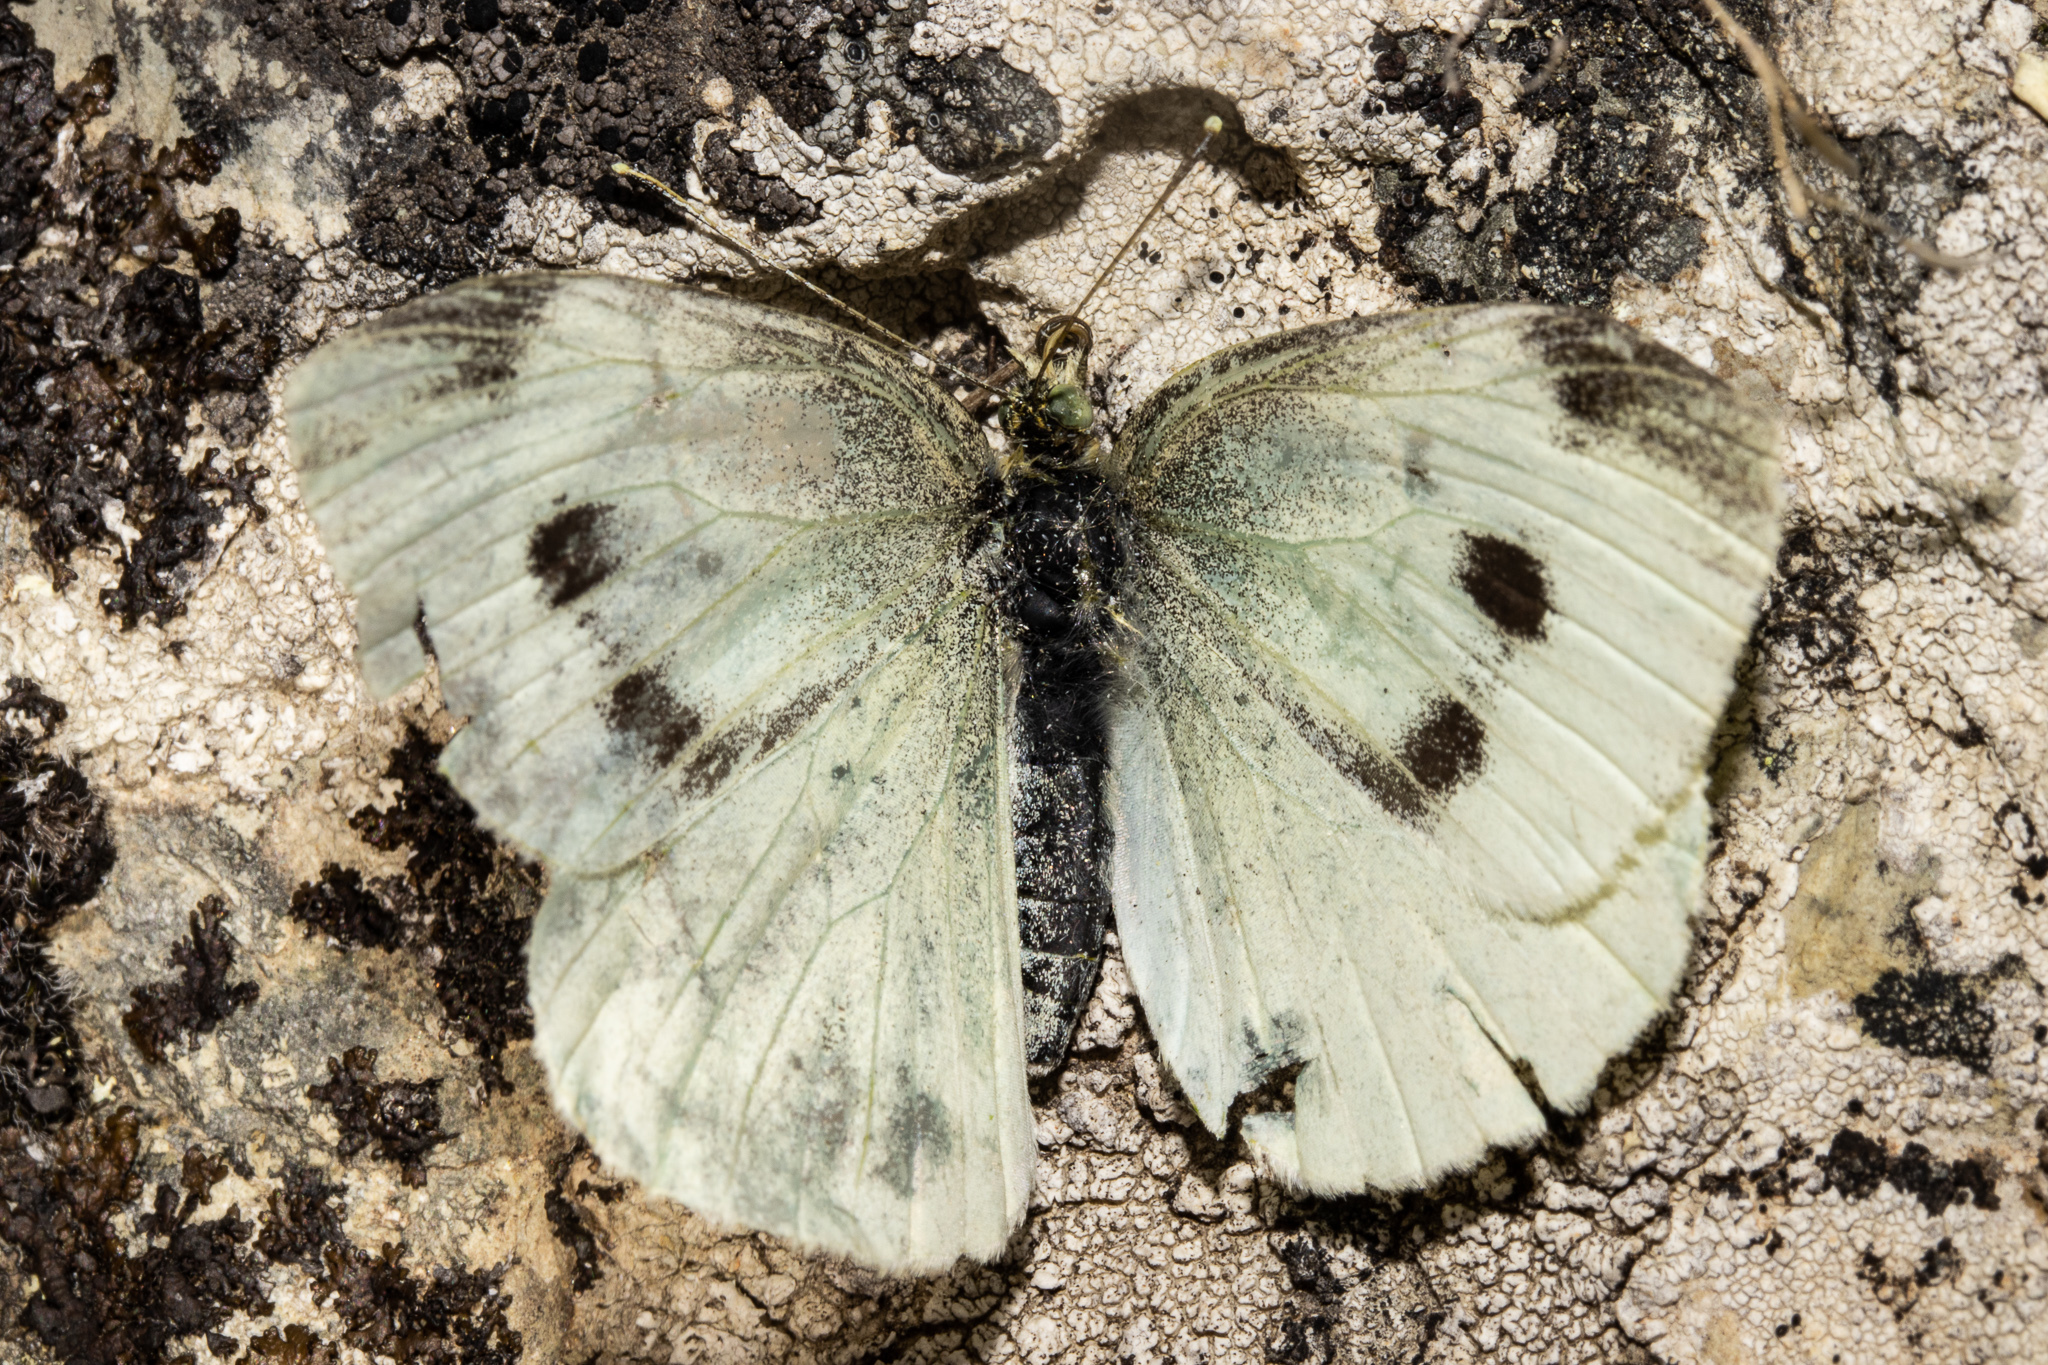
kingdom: Animalia
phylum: Arthropoda
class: Insecta
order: Lepidoptera
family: Pieridae
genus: Pieris
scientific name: Pieris rapae
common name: Small white
